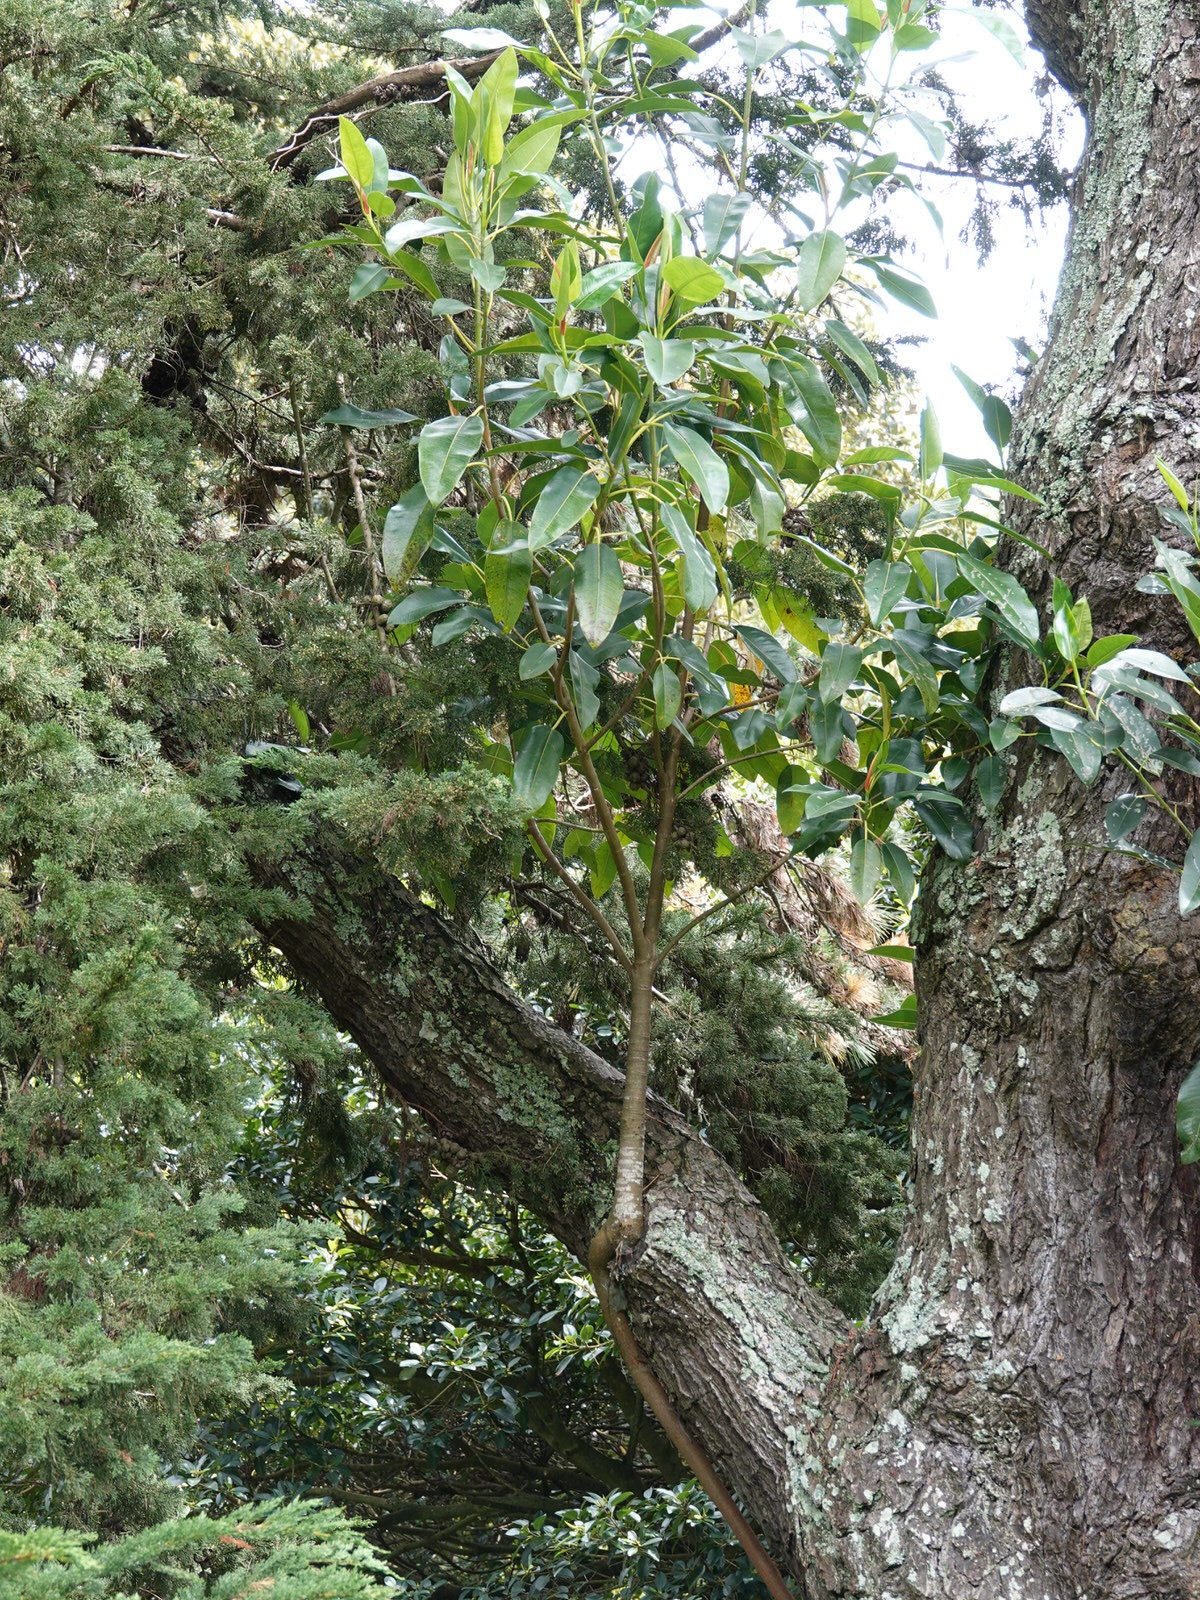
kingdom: Plantae
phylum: Tracheophyta
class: Magnoliopsida
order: Rosales
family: Moraceae
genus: Ficus
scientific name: Ficus macrophylla
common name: Moreton bay fig
